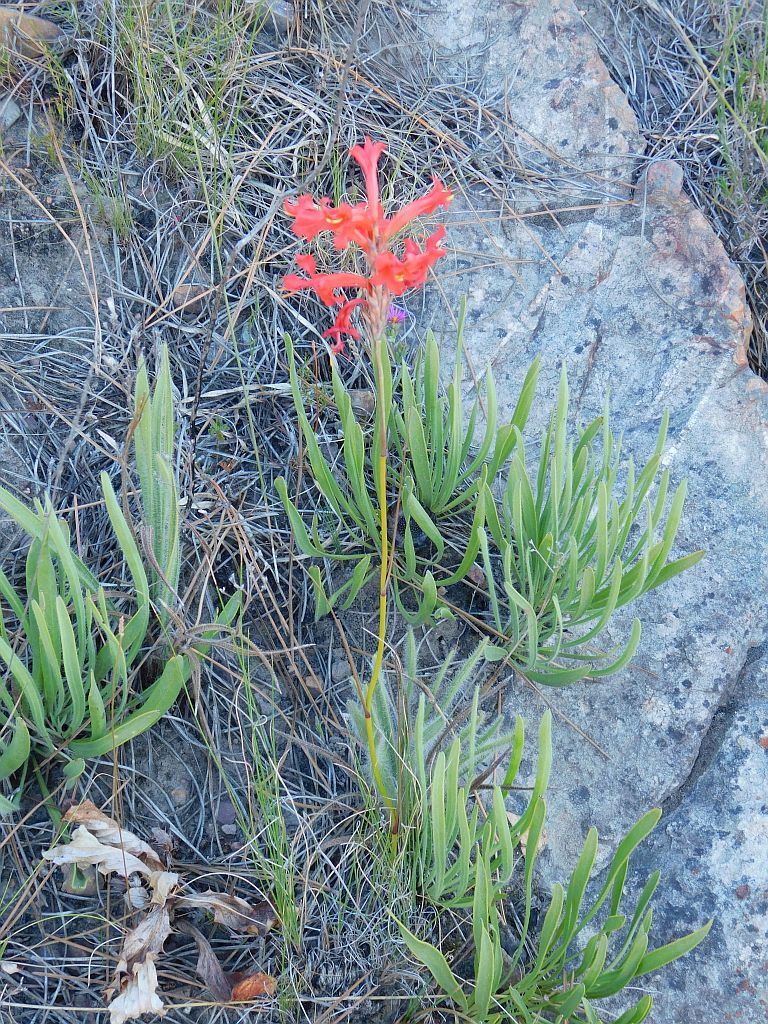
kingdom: Plantae
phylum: Tracheophyta
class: Liliopsida
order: Asparagales
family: Iridaceae
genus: Tritoniopsis
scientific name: Tritoniopsis triticea
